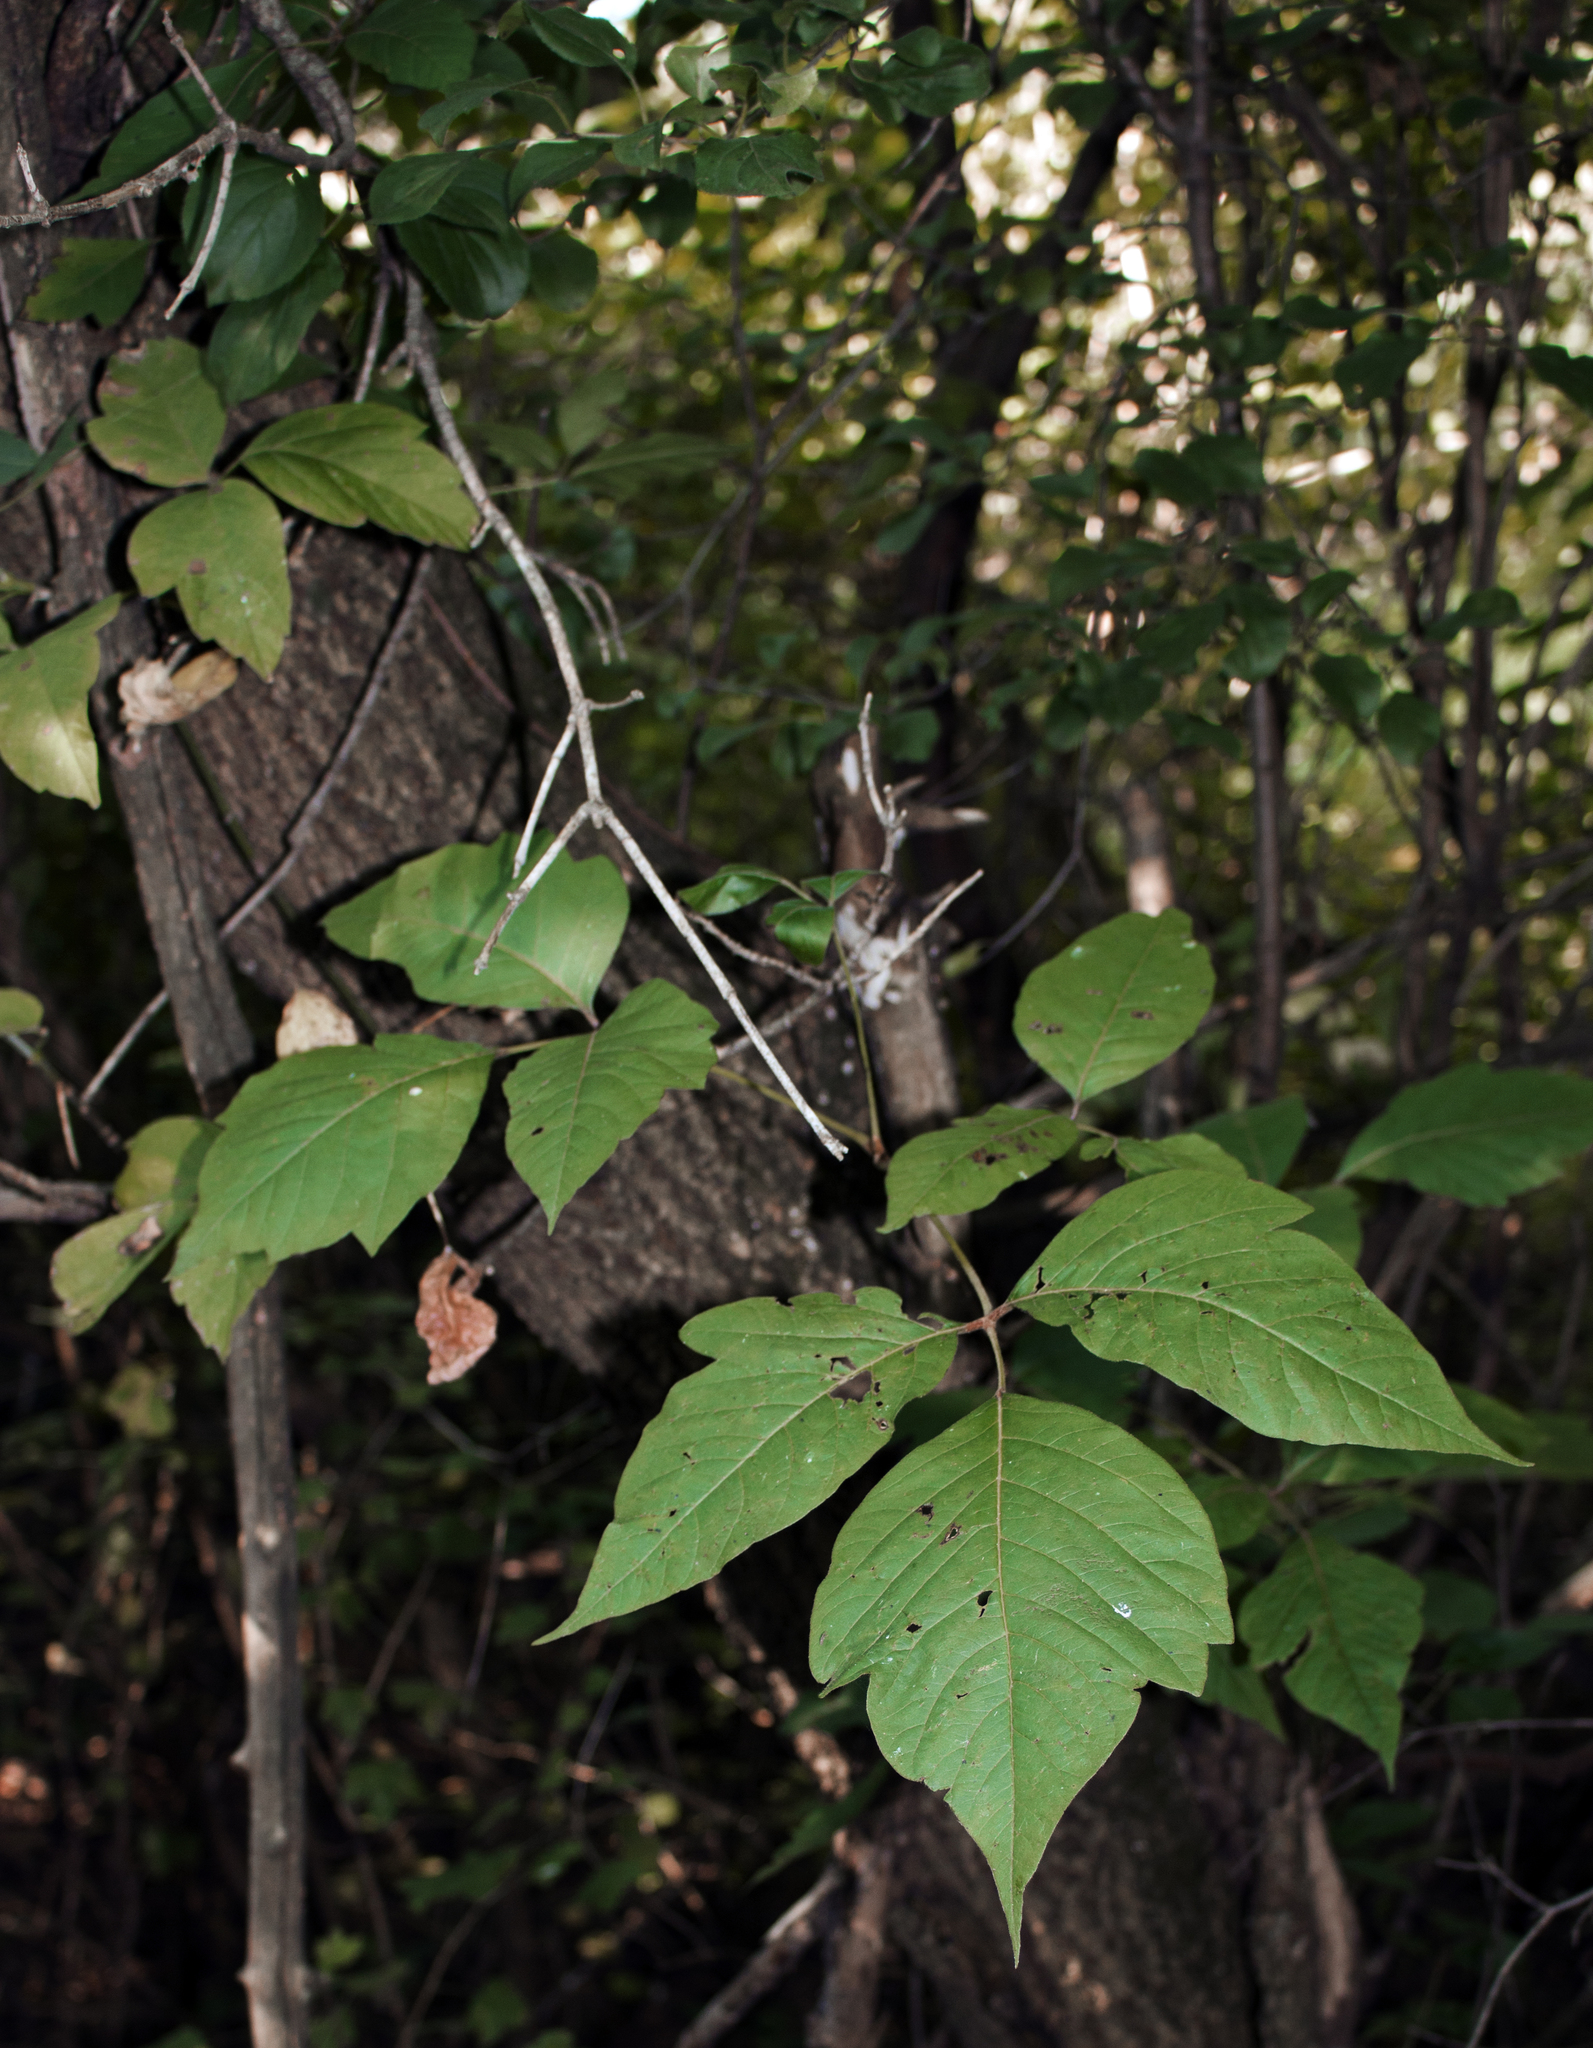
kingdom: Plantae
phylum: Tracheophyta
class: Magnoliopsida
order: Sapindales
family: Anacardiaceae
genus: Toxicodendron
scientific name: Toxicodendron radicans
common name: Poison ivy
